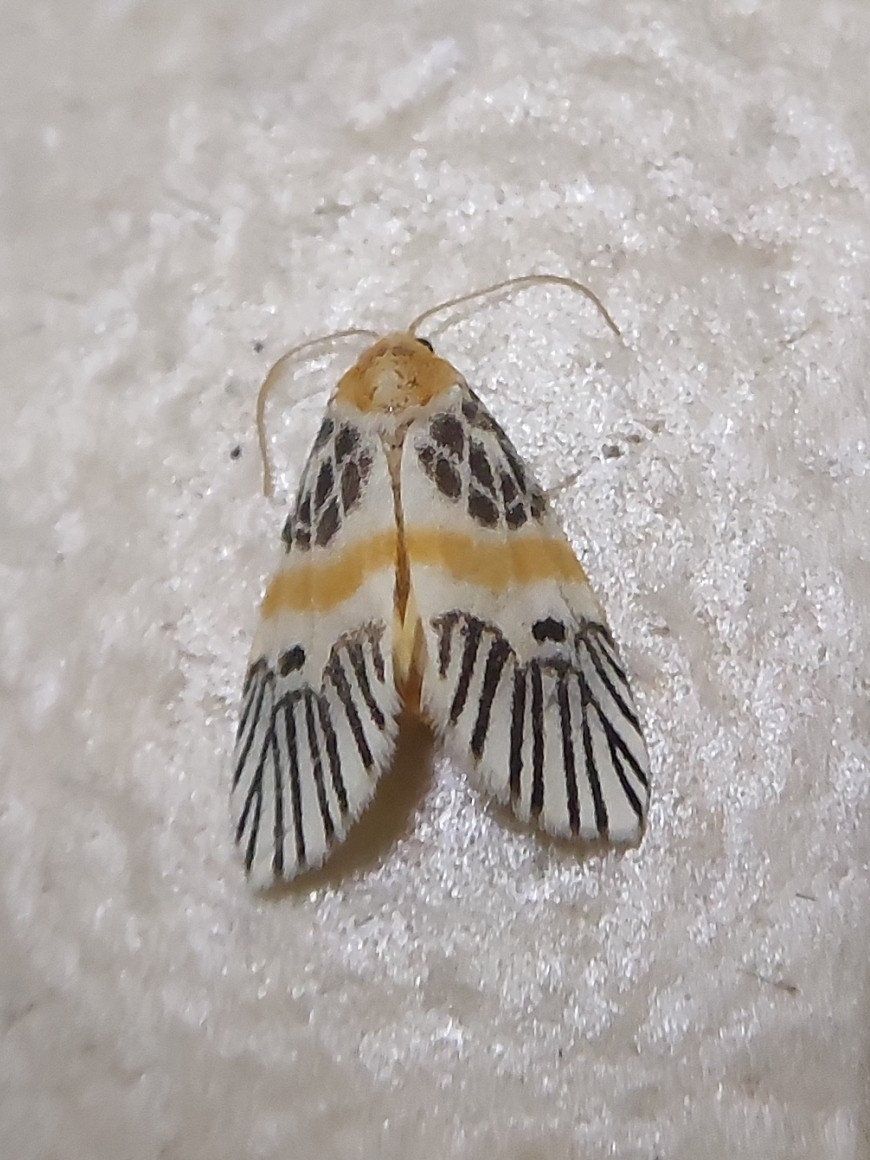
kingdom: Animalia
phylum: Arthropoda
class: Insecta
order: Lepidoptera
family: Erebidae
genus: Indiania
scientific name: Indiania eccentropis
